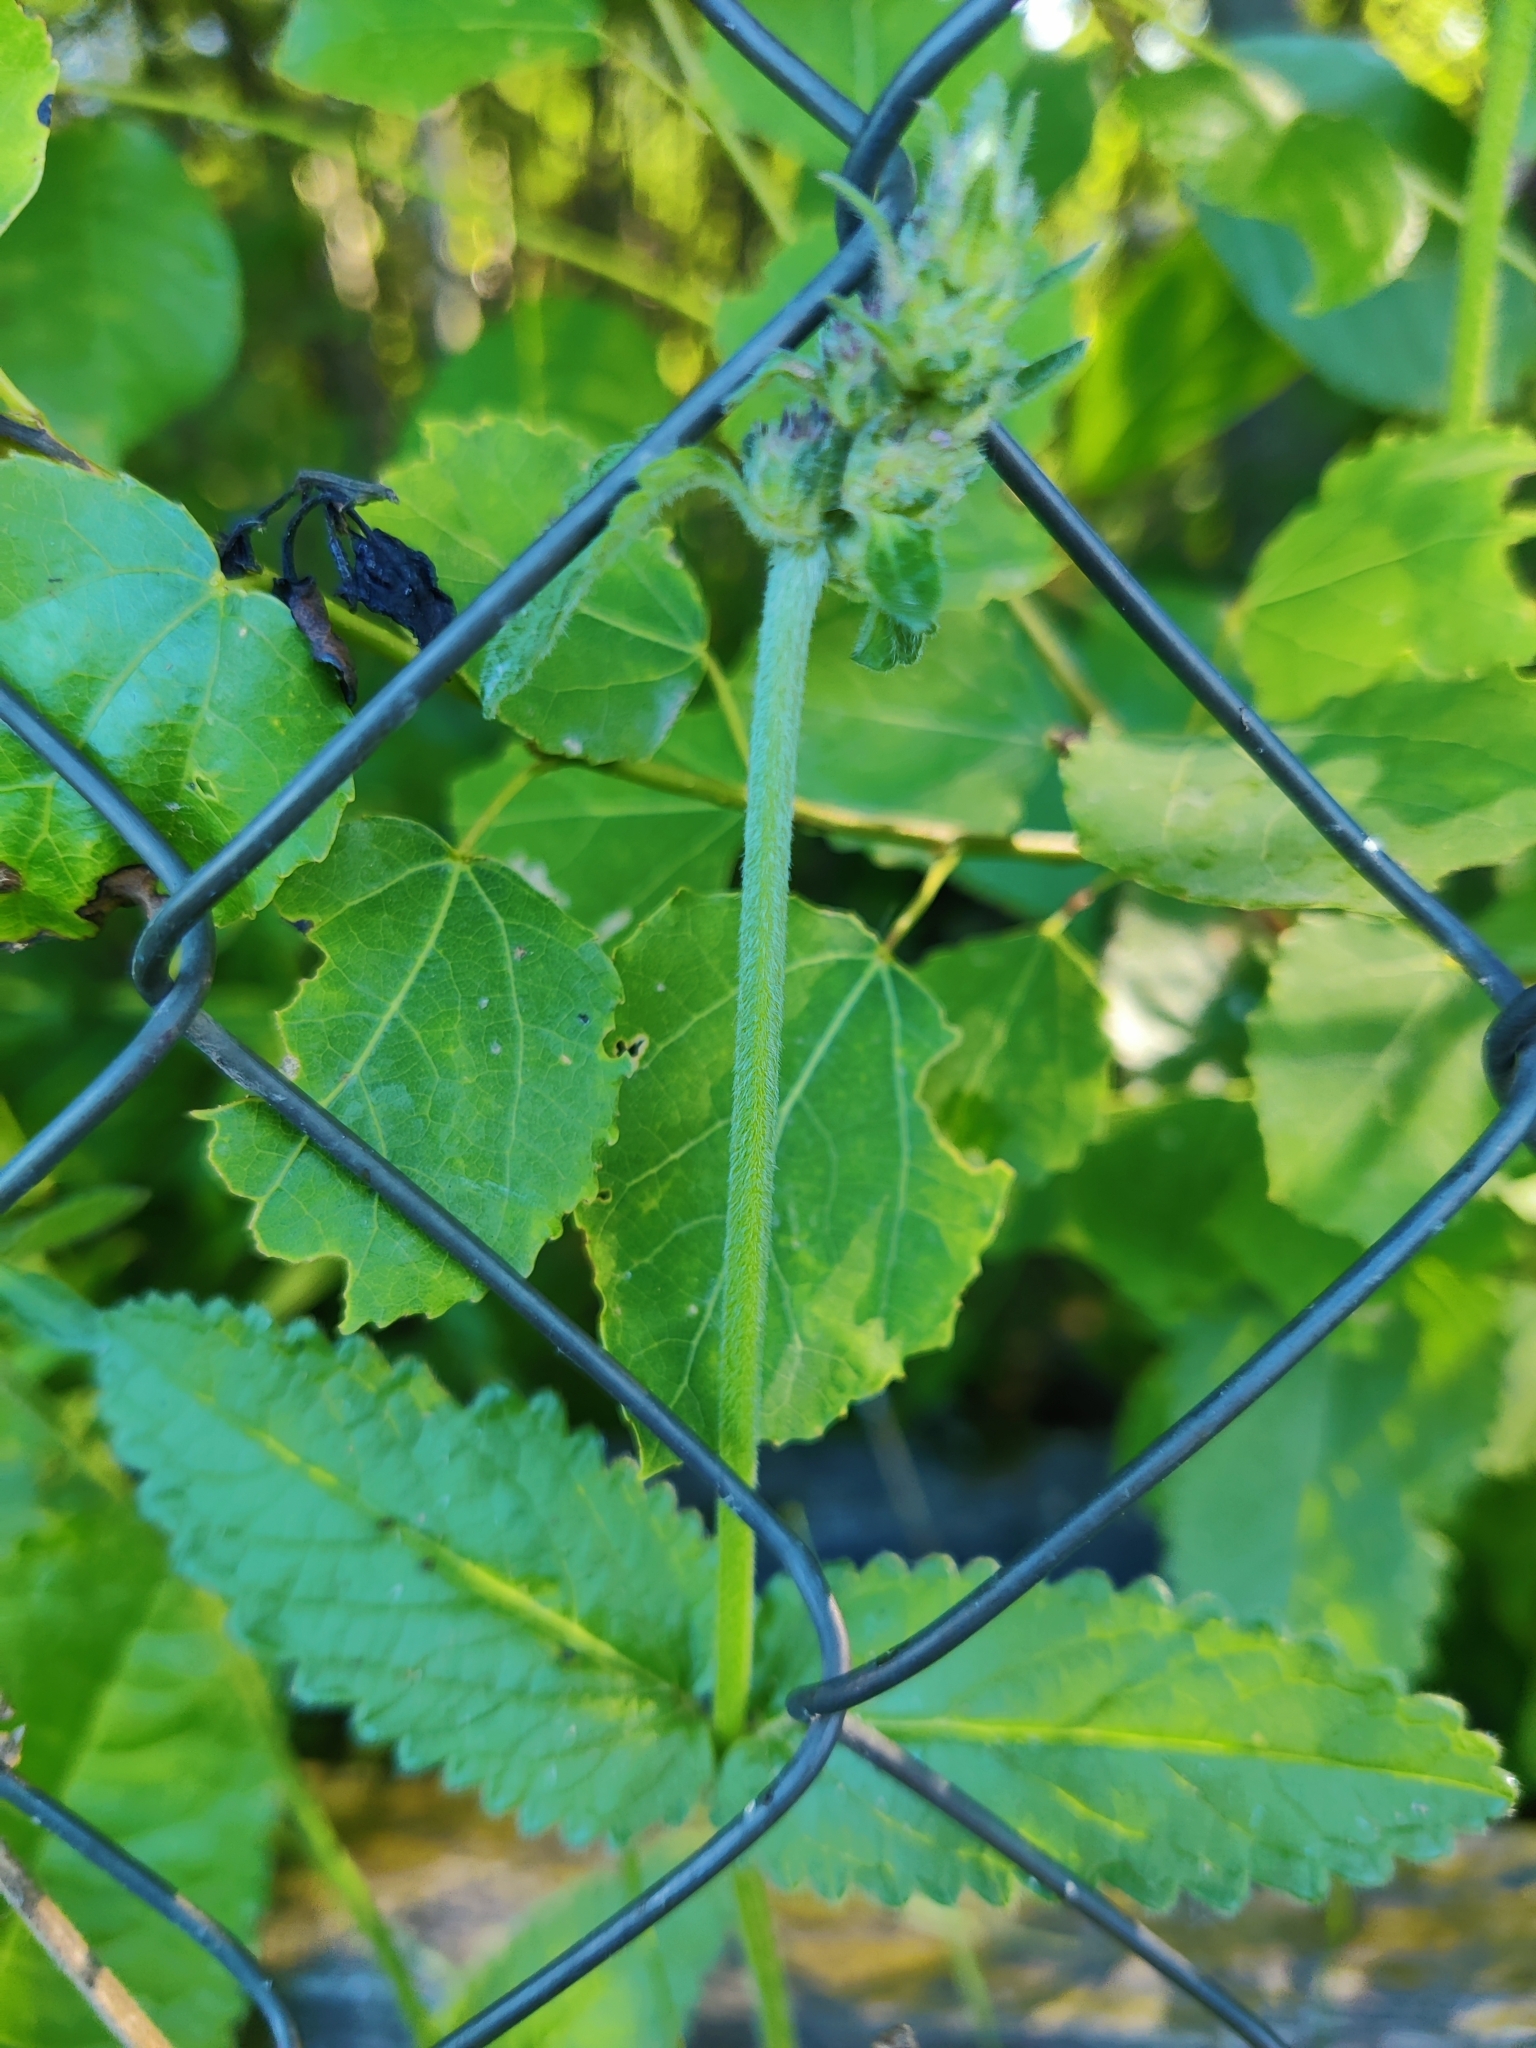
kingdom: Plantae
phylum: Tracheophyta
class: Magnoliopsida
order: Lamiales
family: Lamiaceae
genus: Betonica
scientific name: Betonica officinalis
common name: Bishop's-wort
